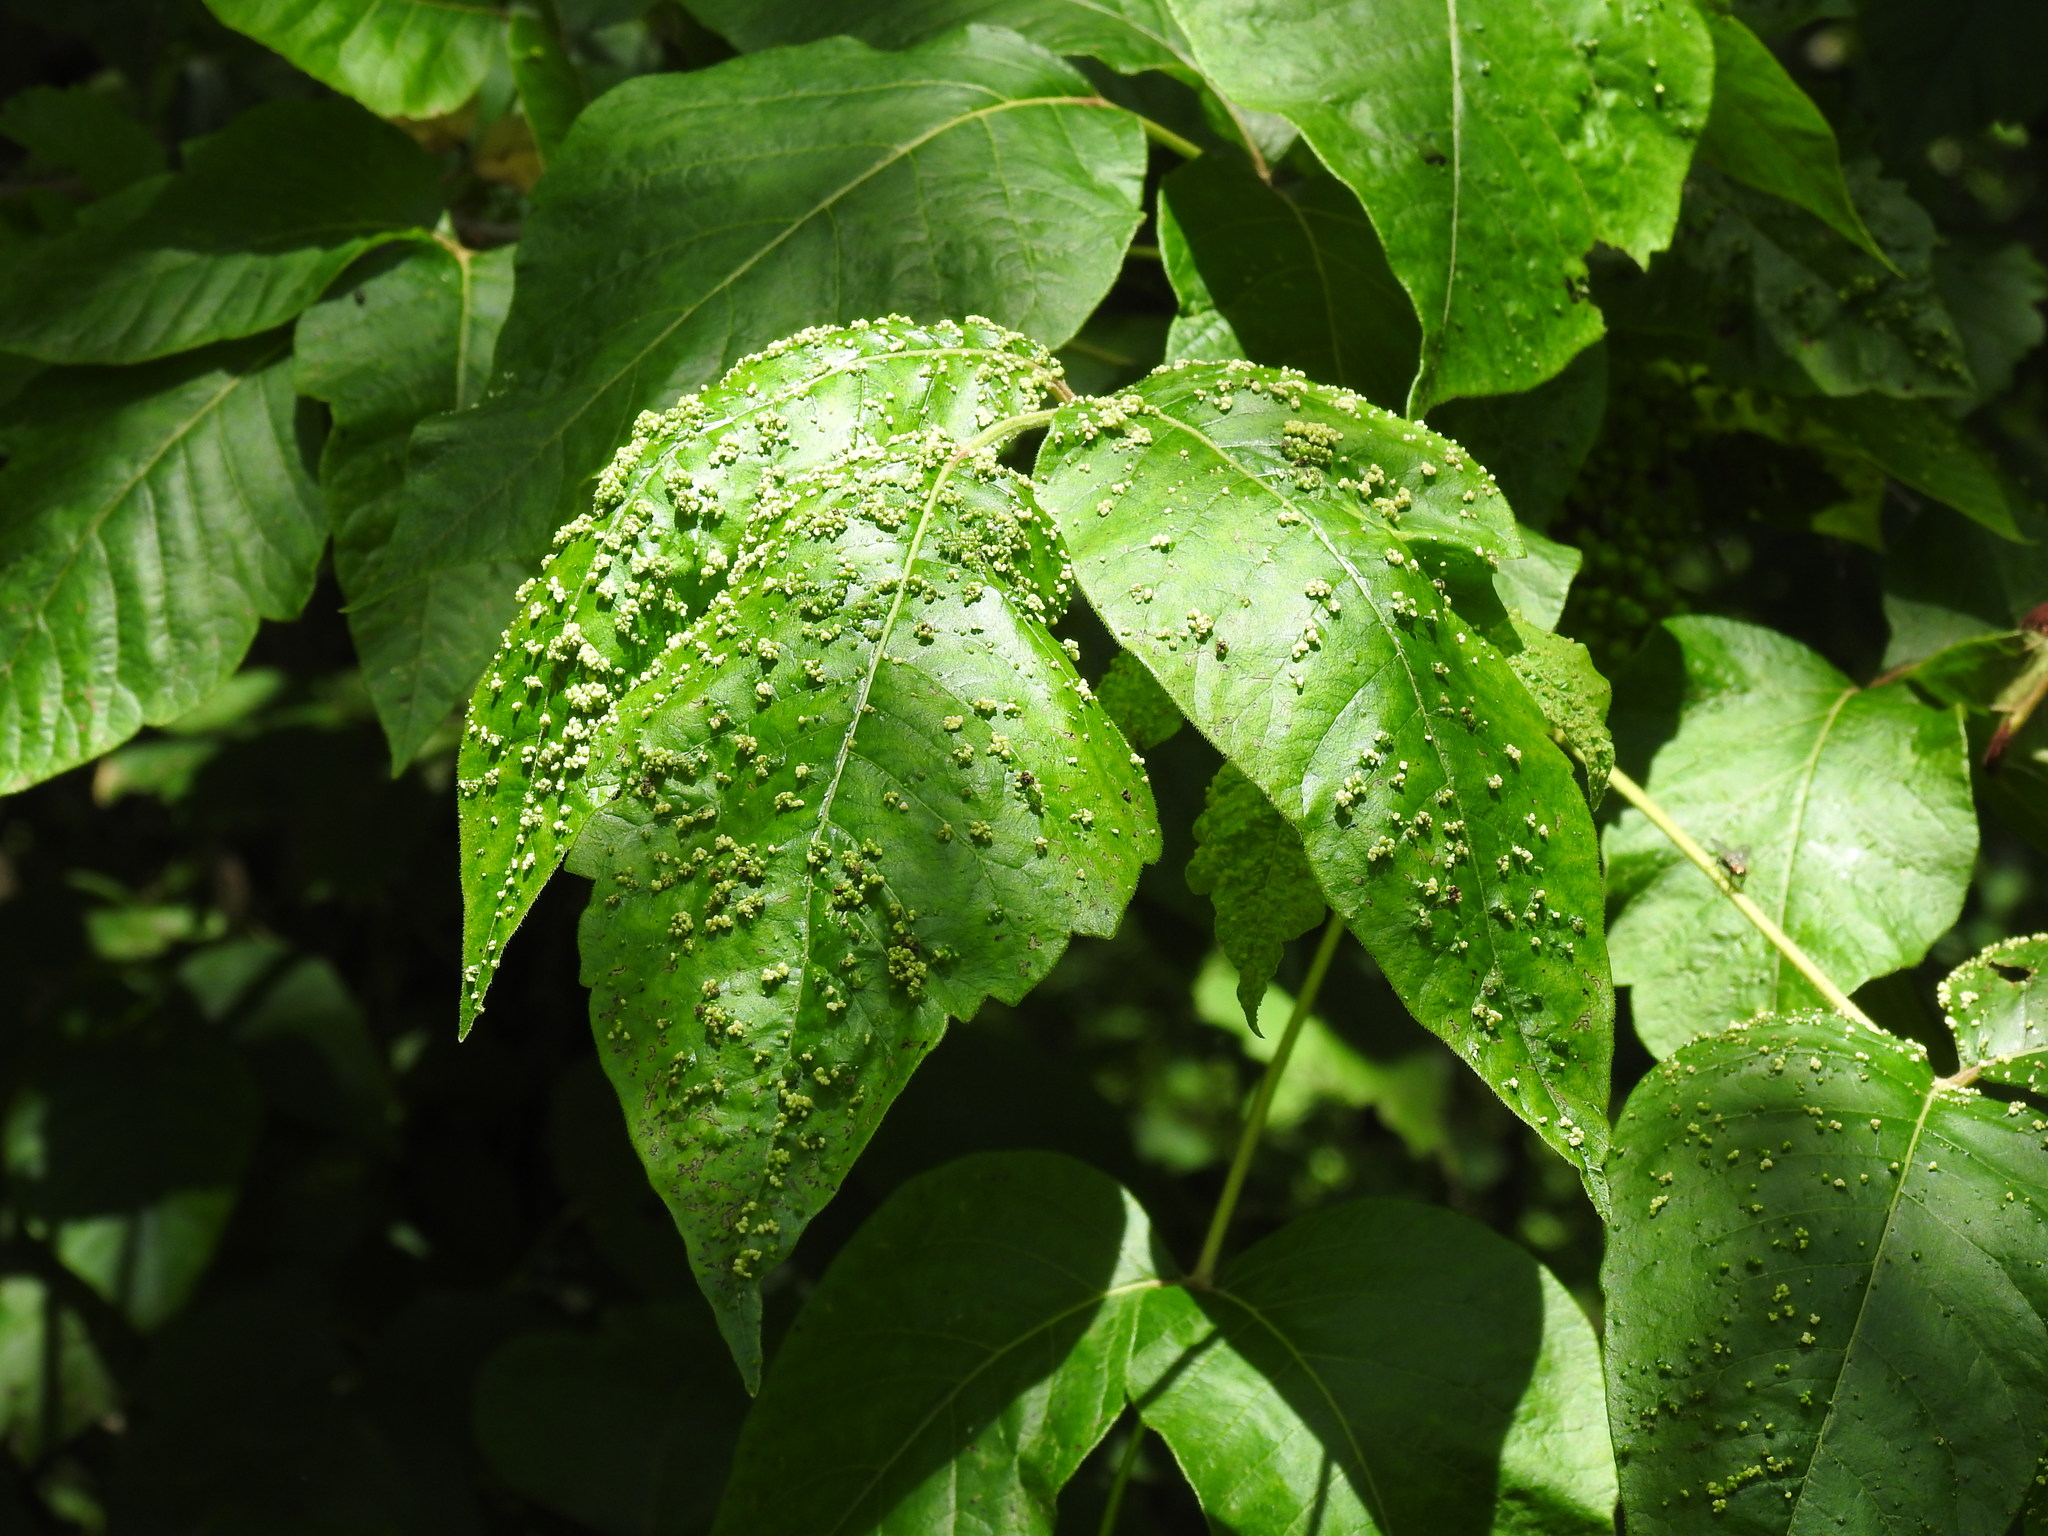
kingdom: Animalia
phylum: Arthropoda
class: Arachnida
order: Trombidiformes
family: Eriophyidae
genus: Aculops
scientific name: Aculops
